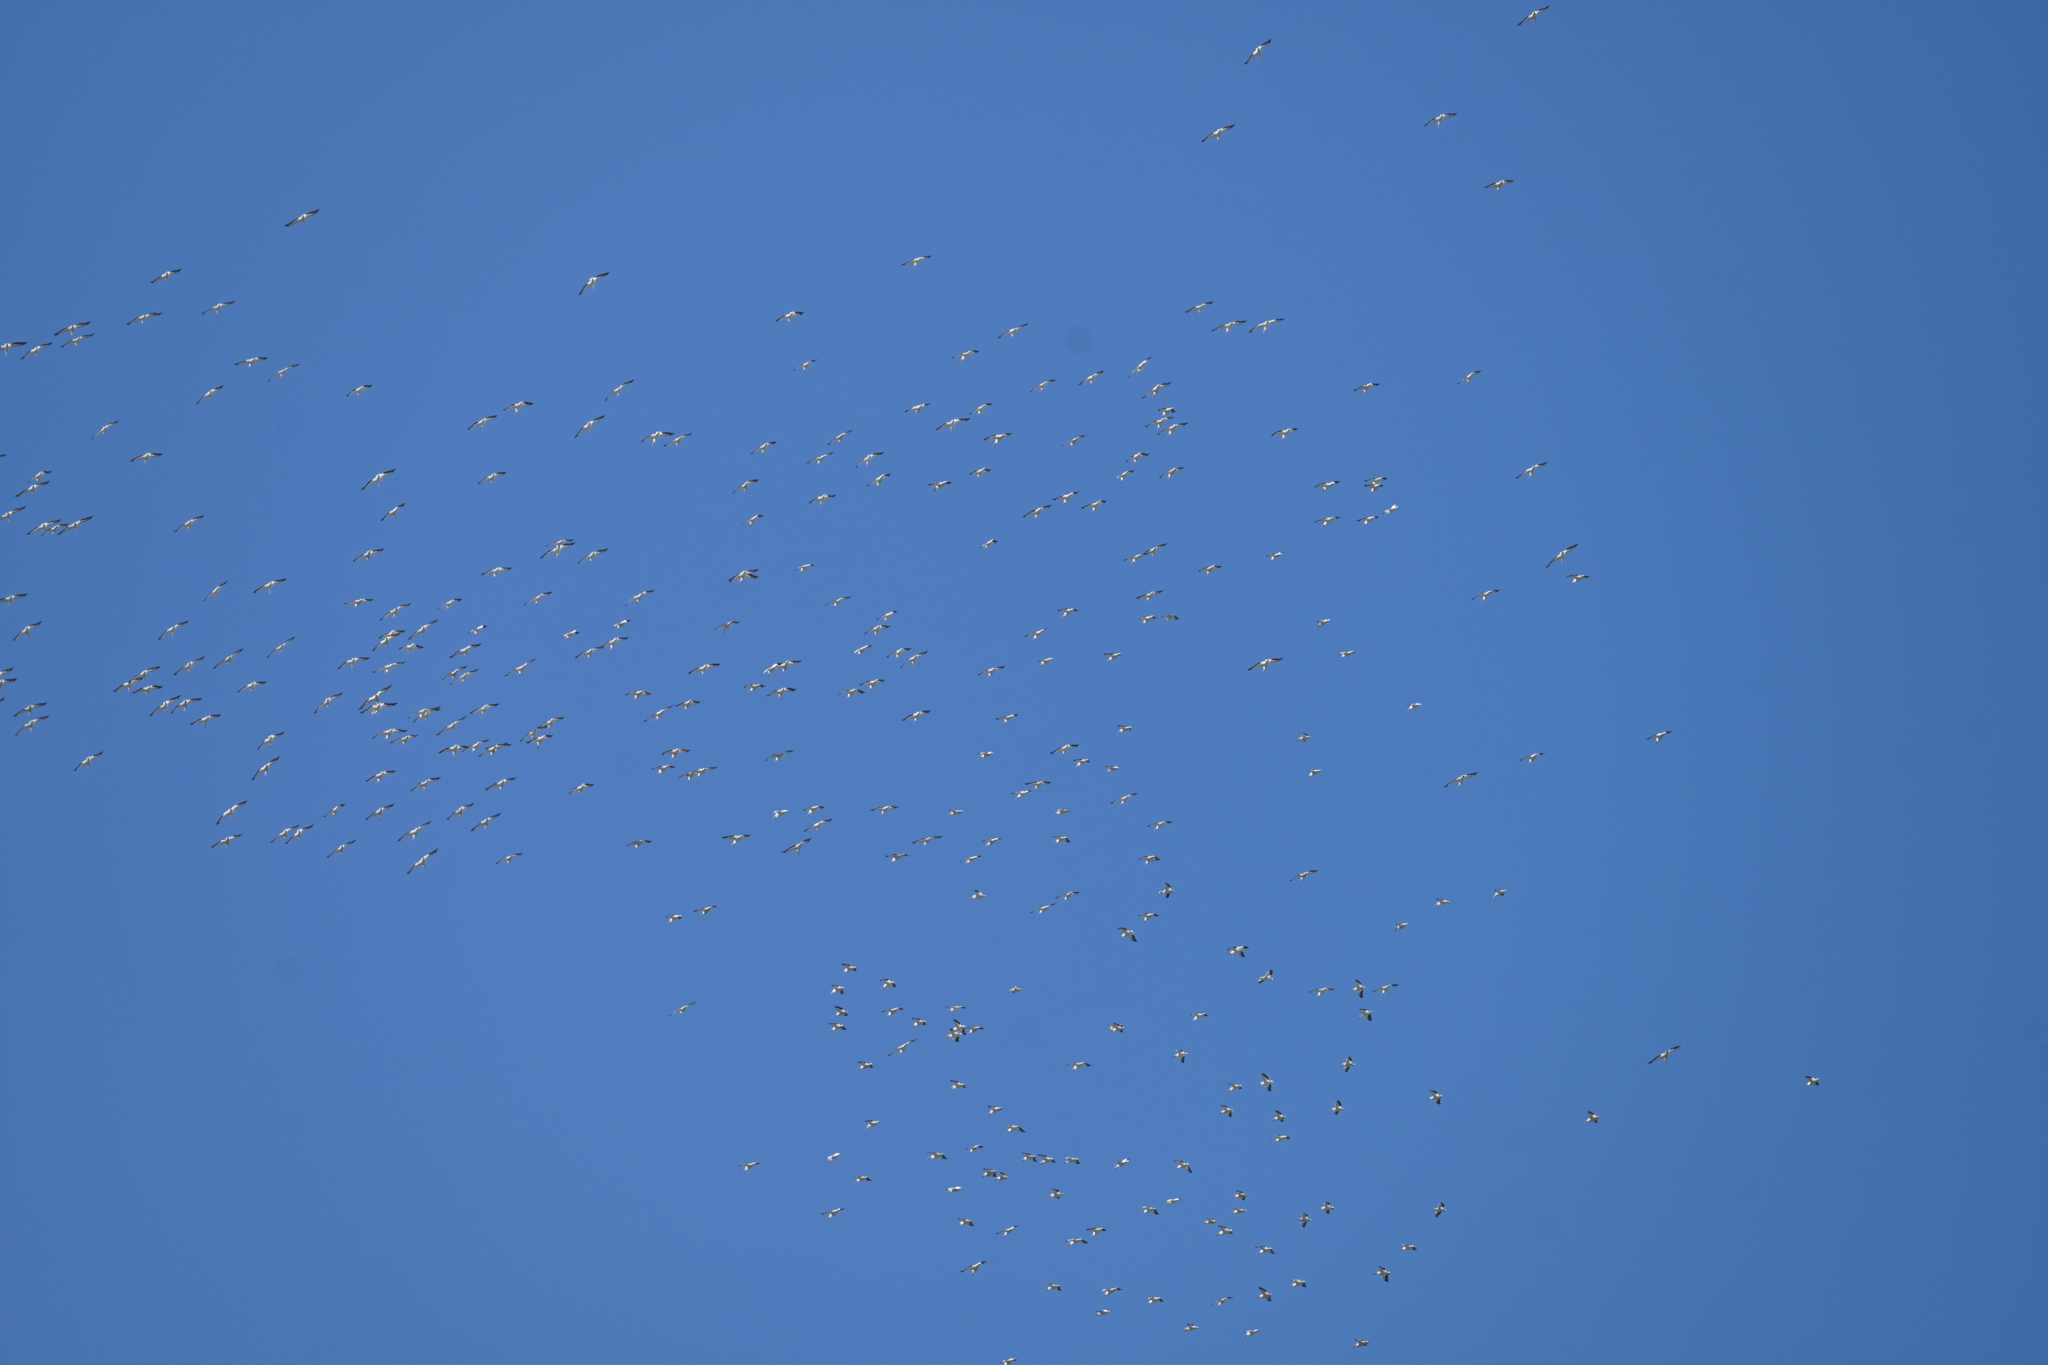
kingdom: Animalia
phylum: Chordata
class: Aves
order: Pelecaniformes
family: Pelecanidae
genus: Pelecanus
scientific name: Pelecanus erythrorhynchos
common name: American white pelican
